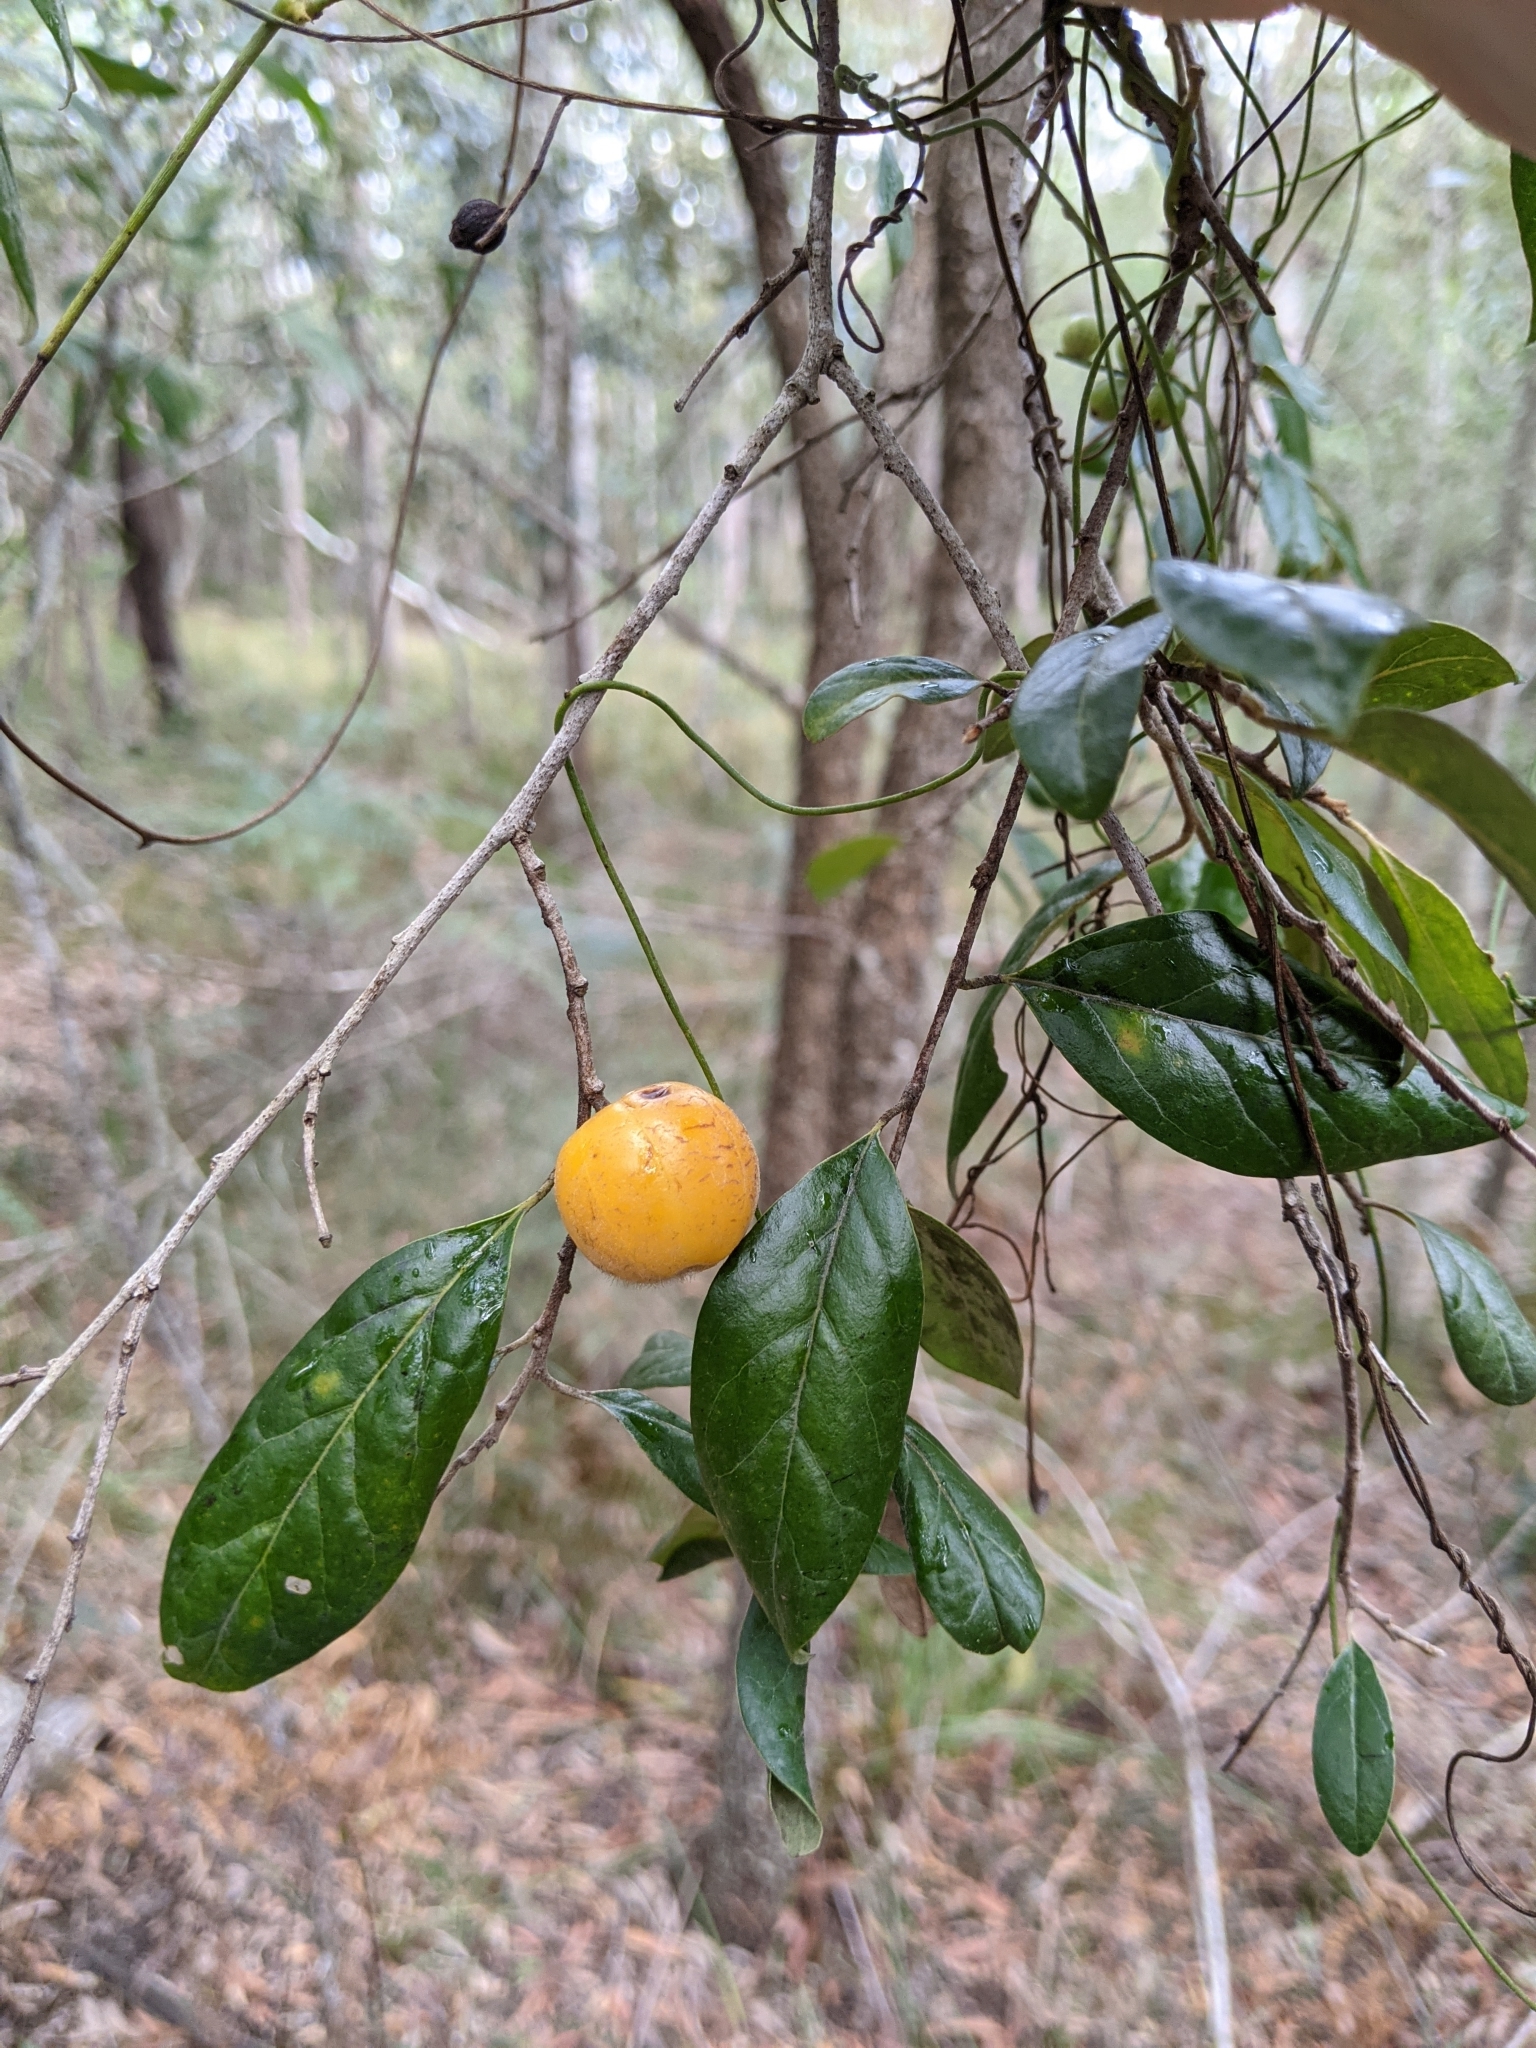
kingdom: Plantae
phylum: Tracheophyta
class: Magnoliopsida
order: Malpighiales
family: Picrodendraceae
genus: Petalostigma
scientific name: Petalostigma pubescens
